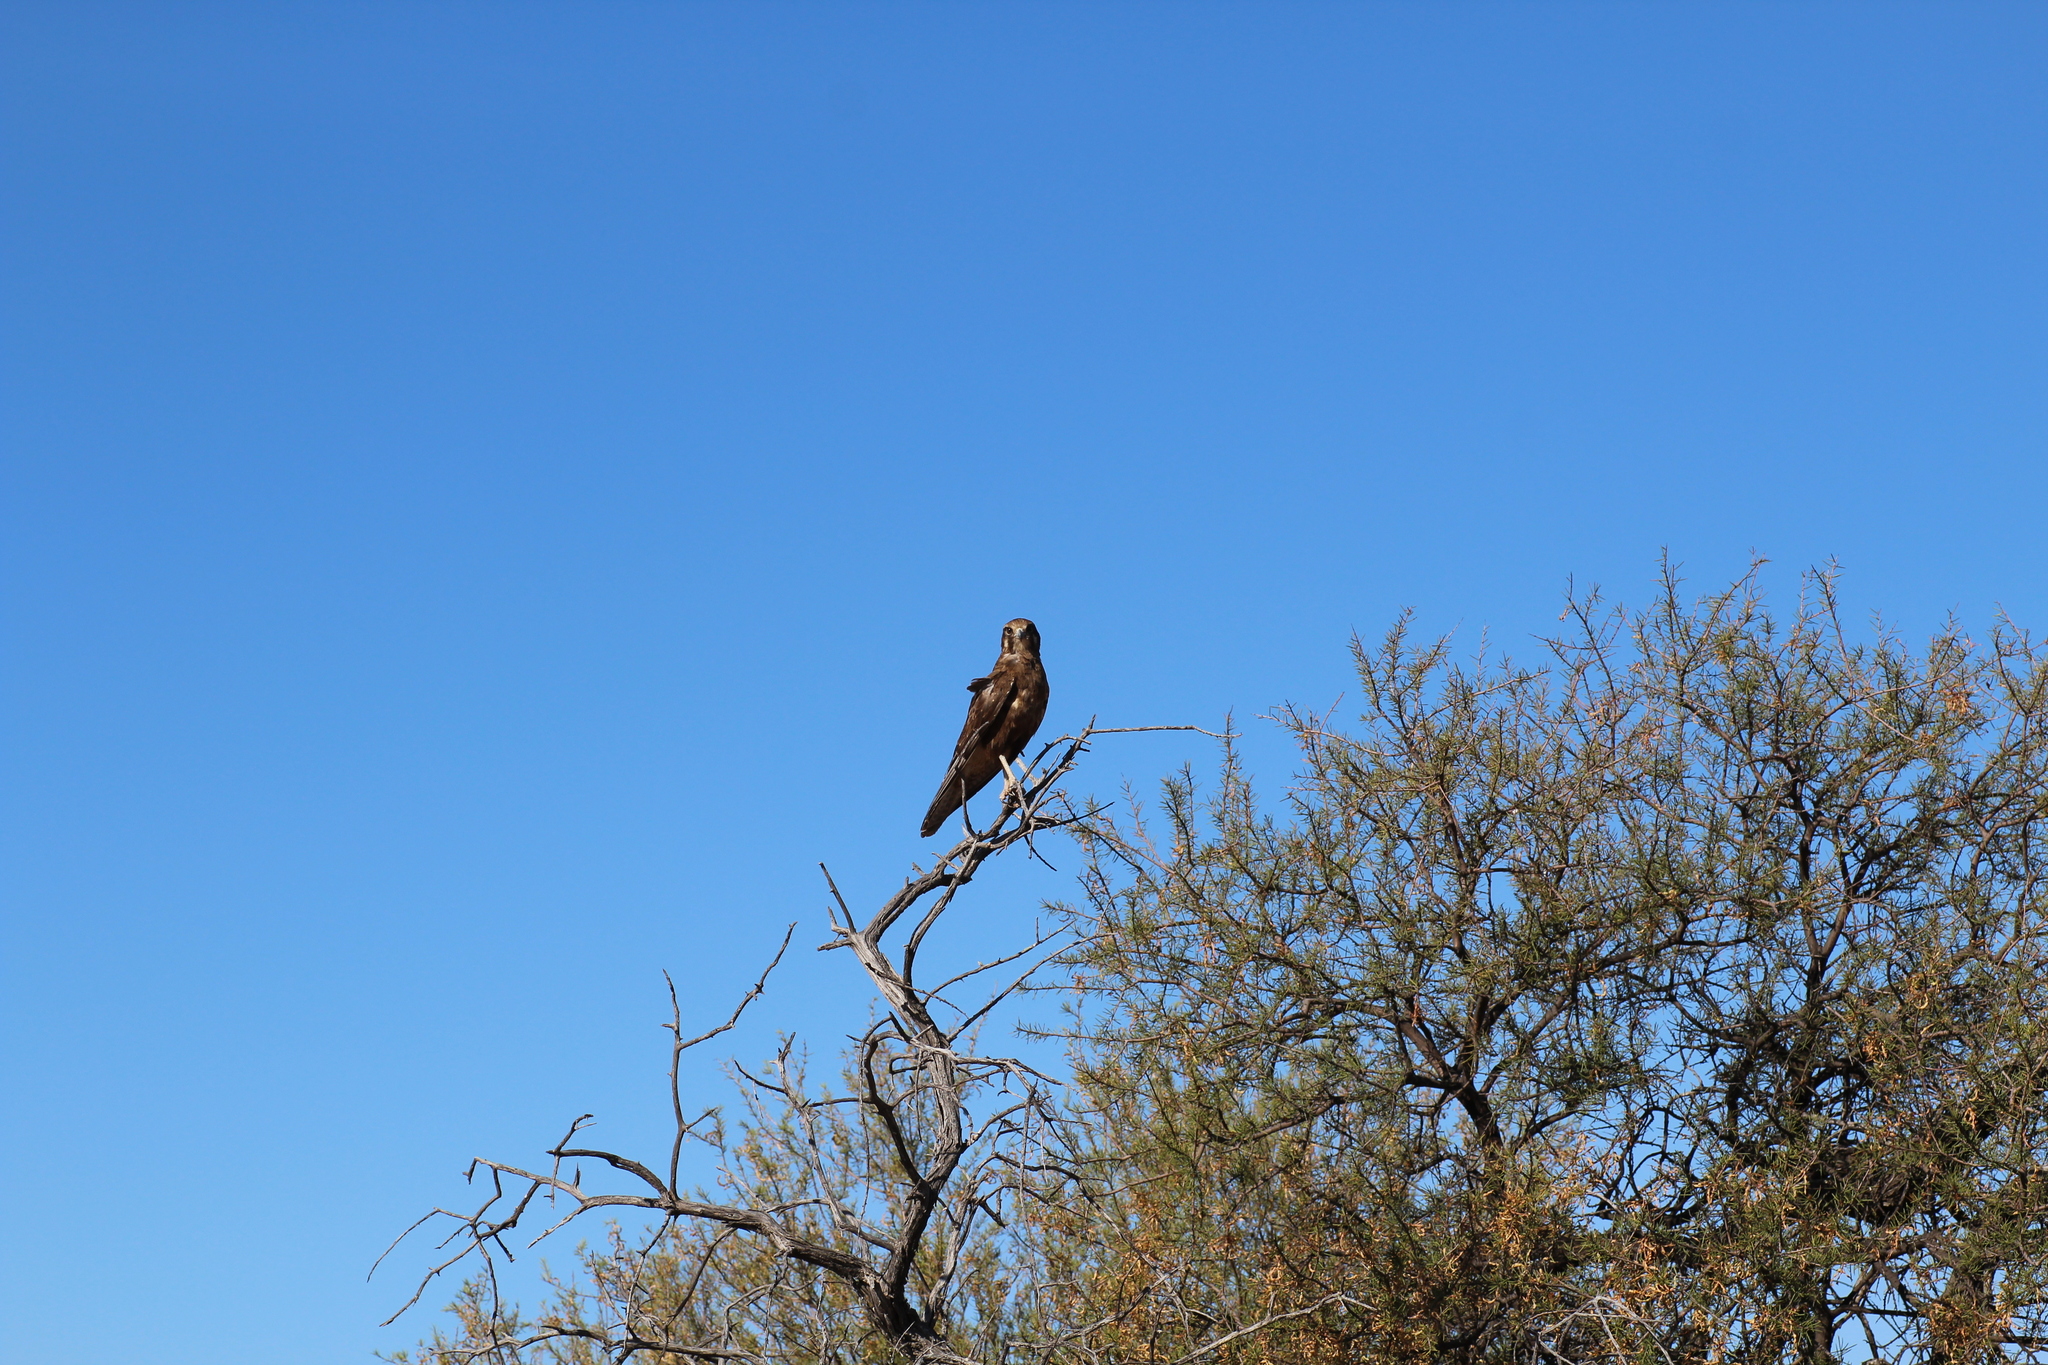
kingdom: Animalia
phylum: Chordata
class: Aves
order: Falconiformes
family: Falconidae
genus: Falco
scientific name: Falco berigora
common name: Brown falcon
